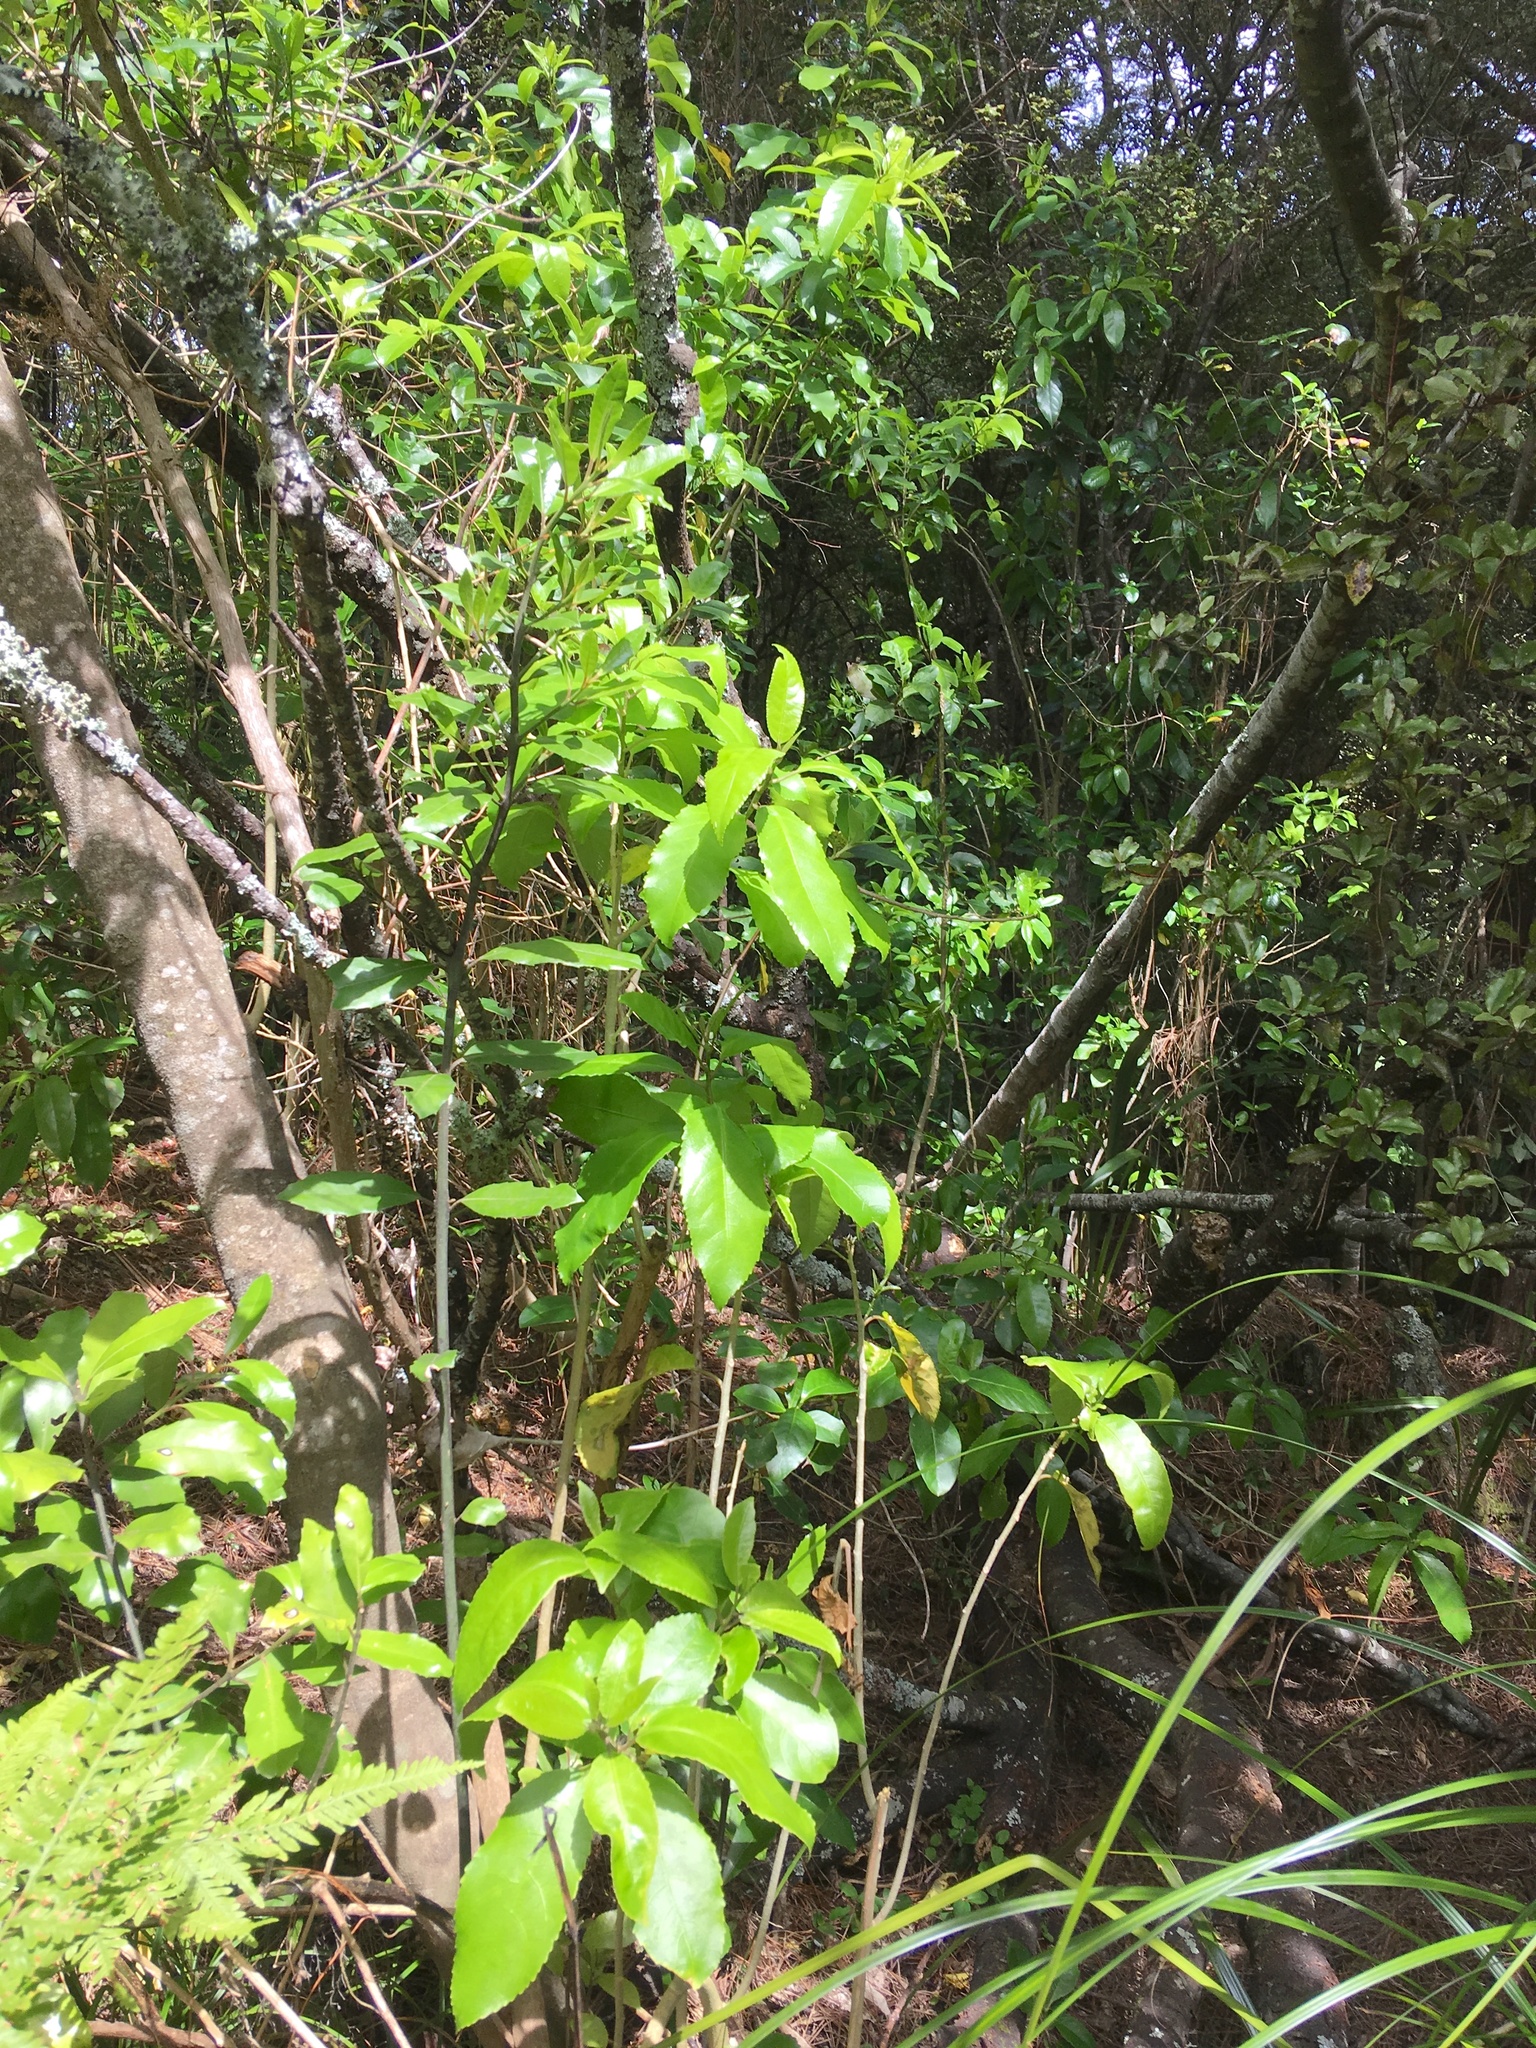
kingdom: Plantae
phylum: Tracheophyta
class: Magnoliopsida
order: Malpighiales
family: Violaceae
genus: Melicytus
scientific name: Melicytus ramiflorus
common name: Mahoe
